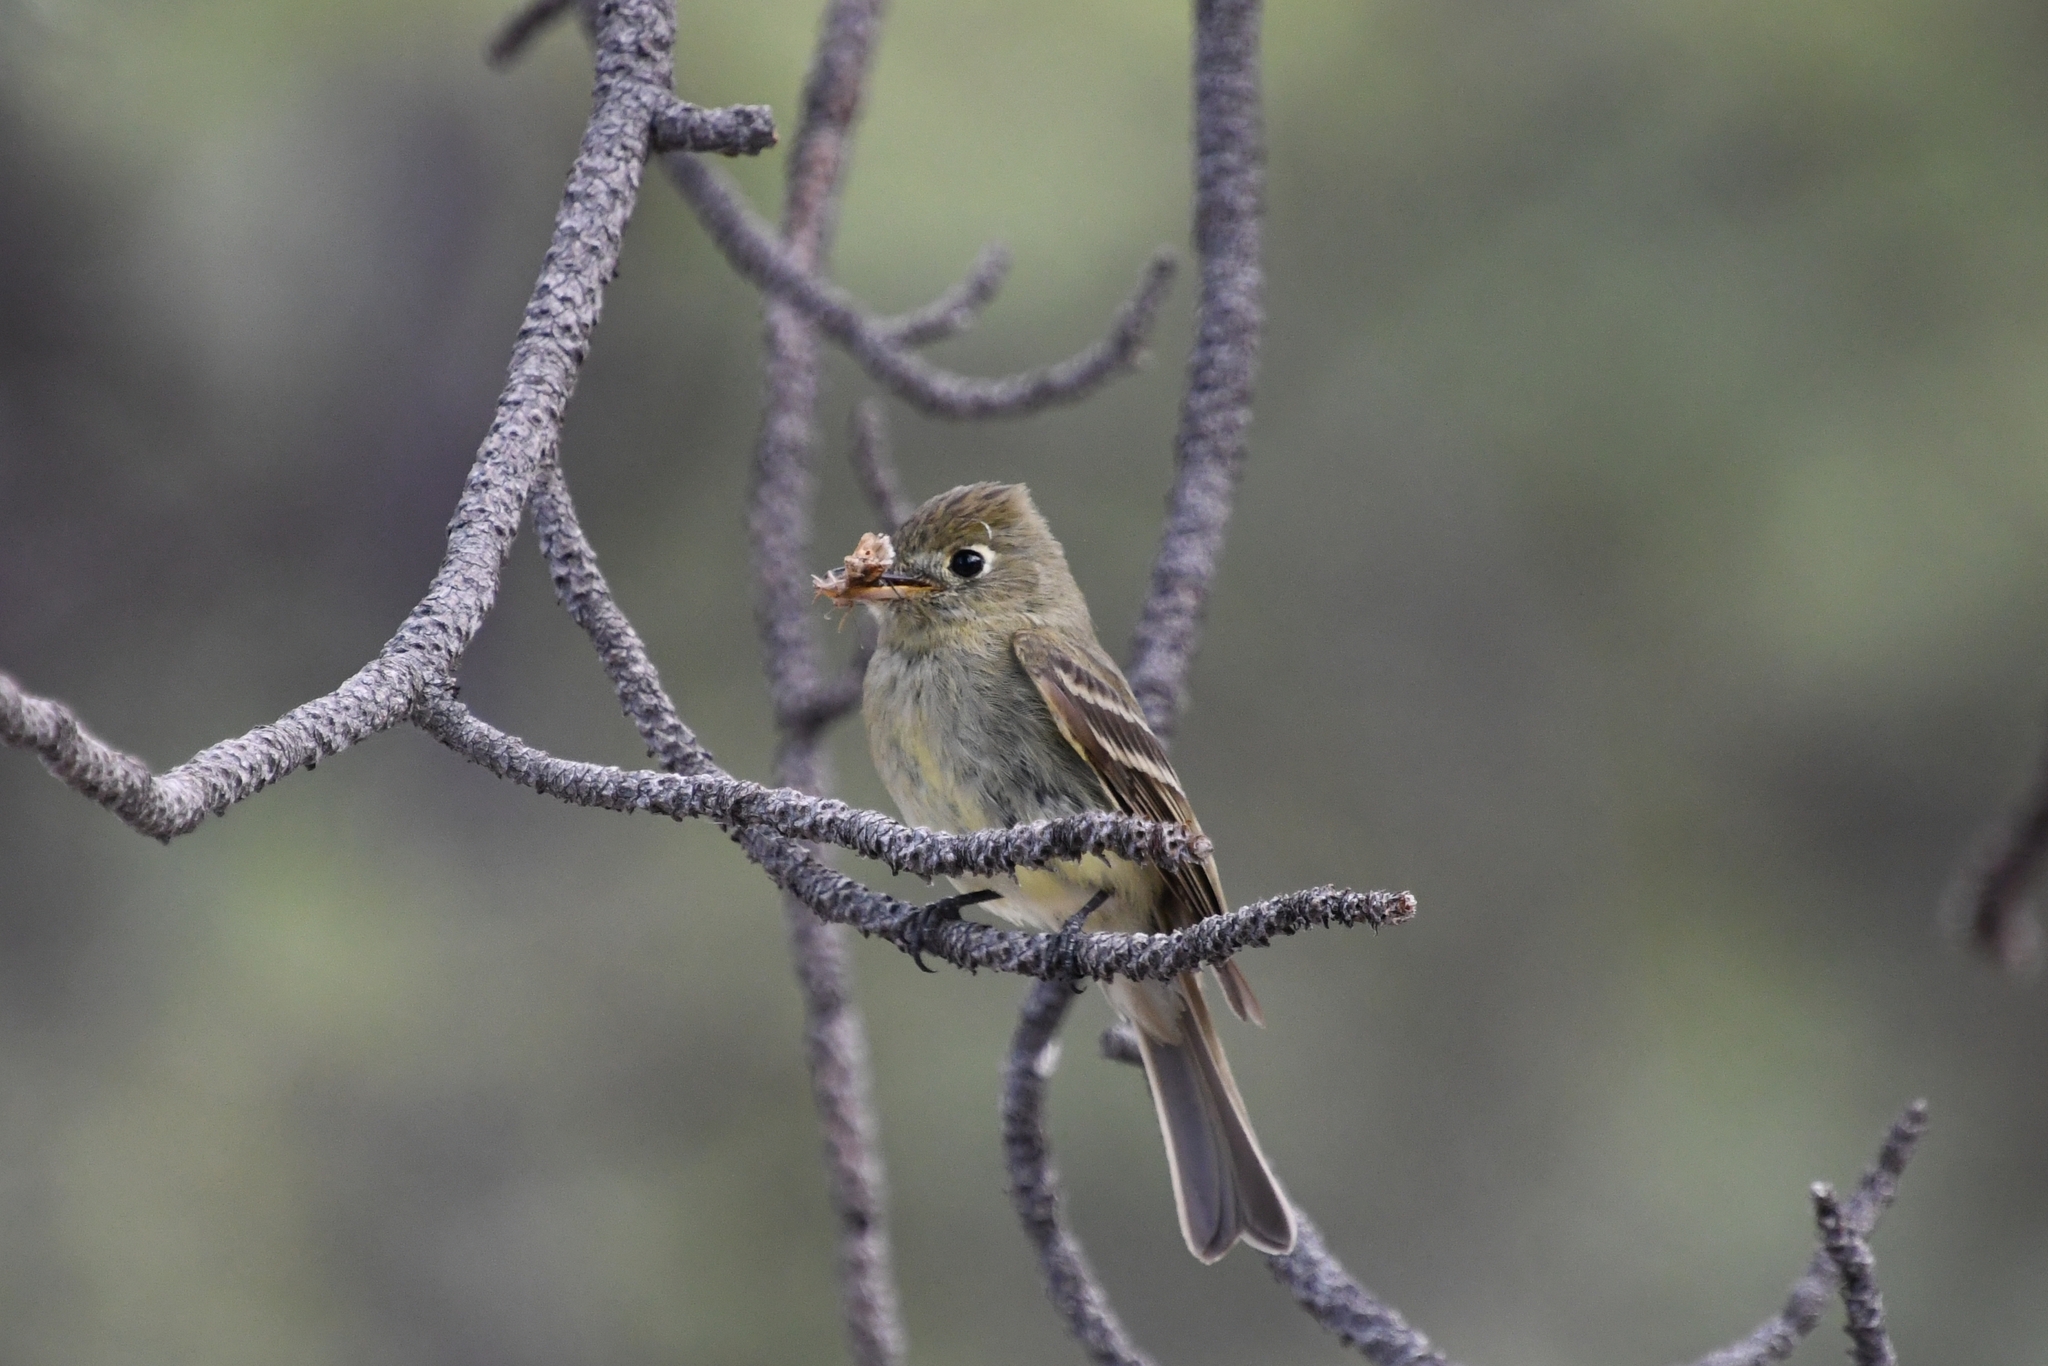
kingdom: Animalia
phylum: Chordata
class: Aves
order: Passeriformes
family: Tyrannidae
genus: Empidonax
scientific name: Empidonax difficilis
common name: Pacific-slope flycatcher
